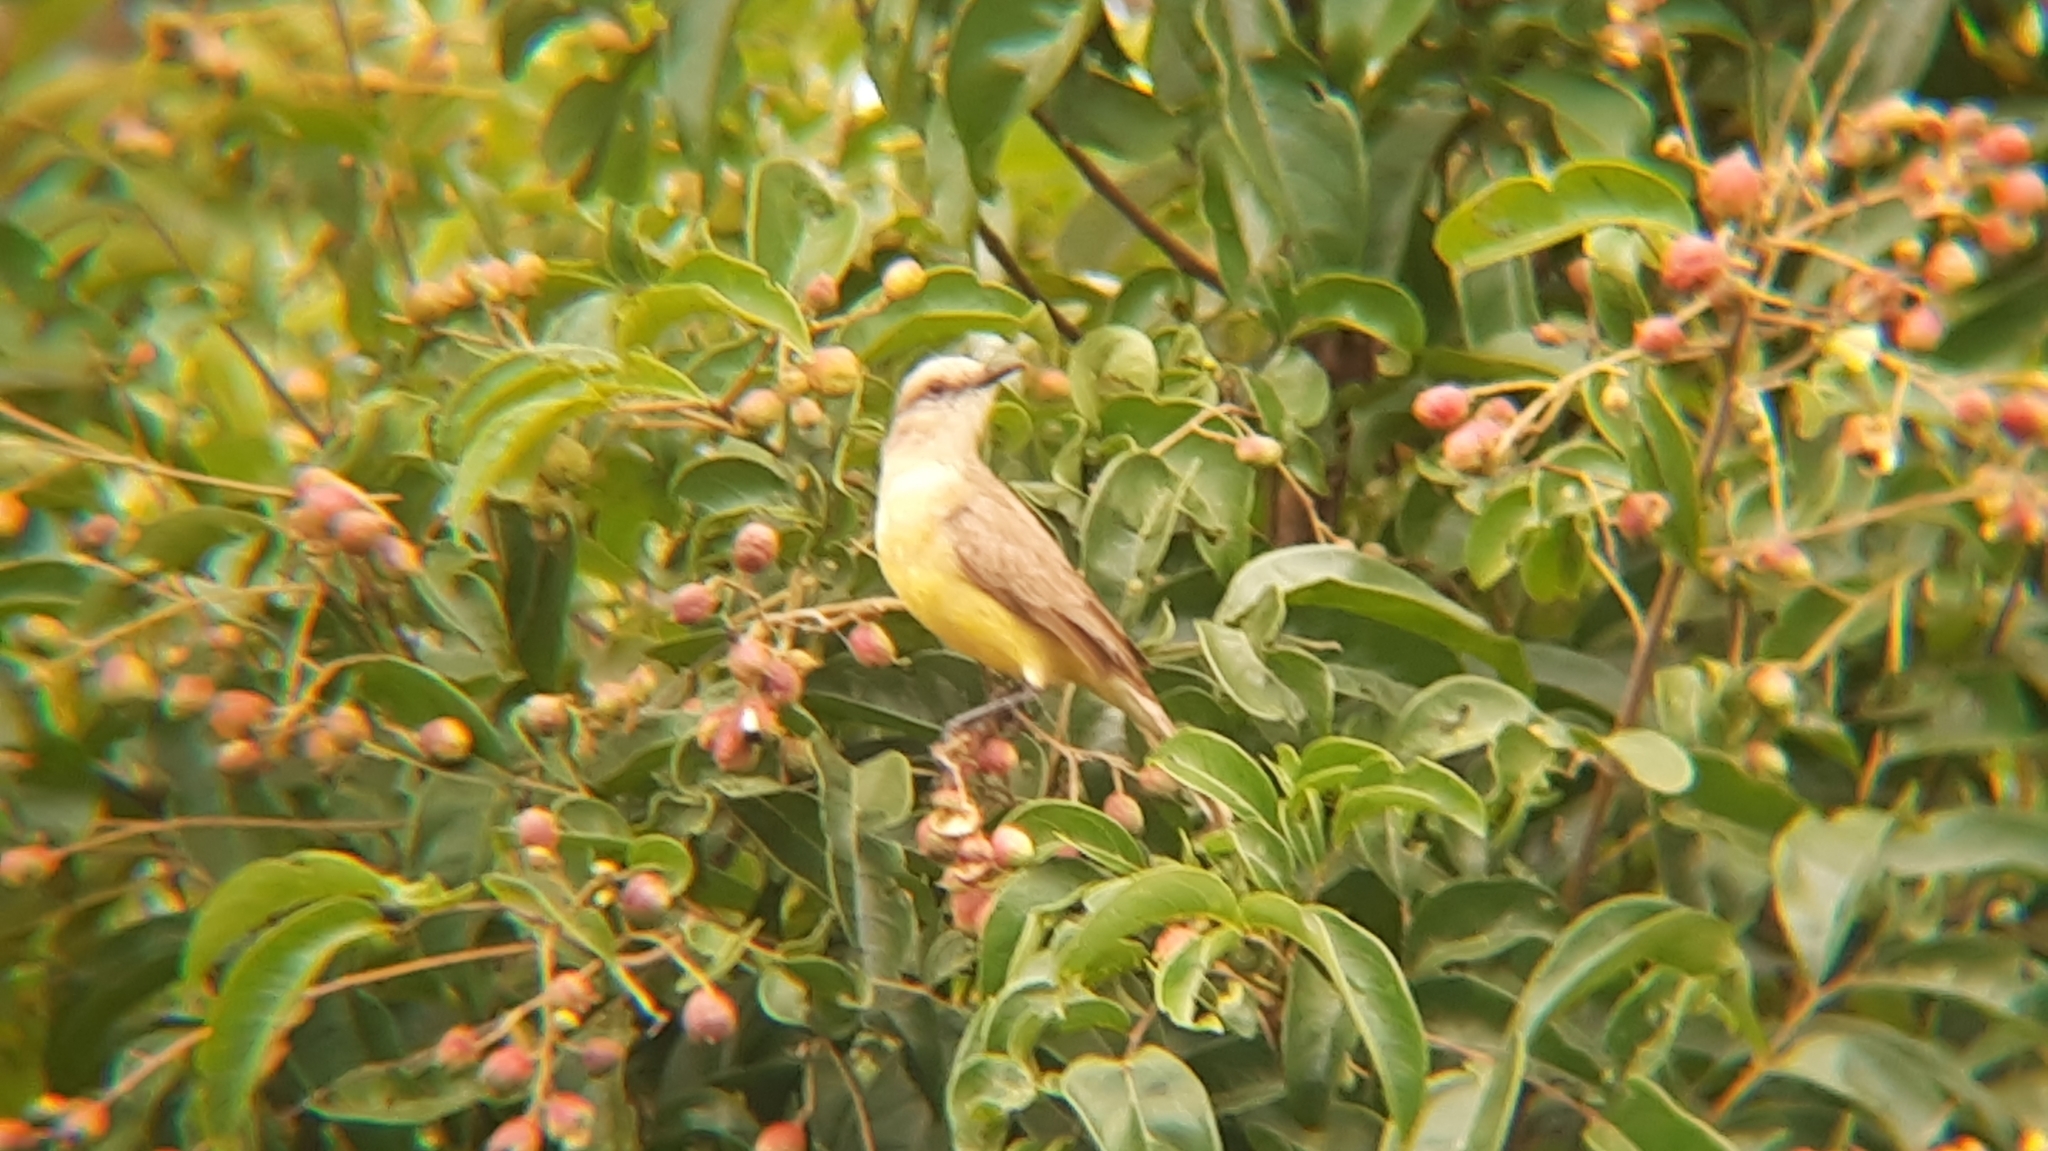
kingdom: Animalia
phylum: Chordata
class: Aves
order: Passeriformes
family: Tyrannidae
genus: Tyrannus
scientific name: Tyrannus melancholicus
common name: Tropical kingbird
